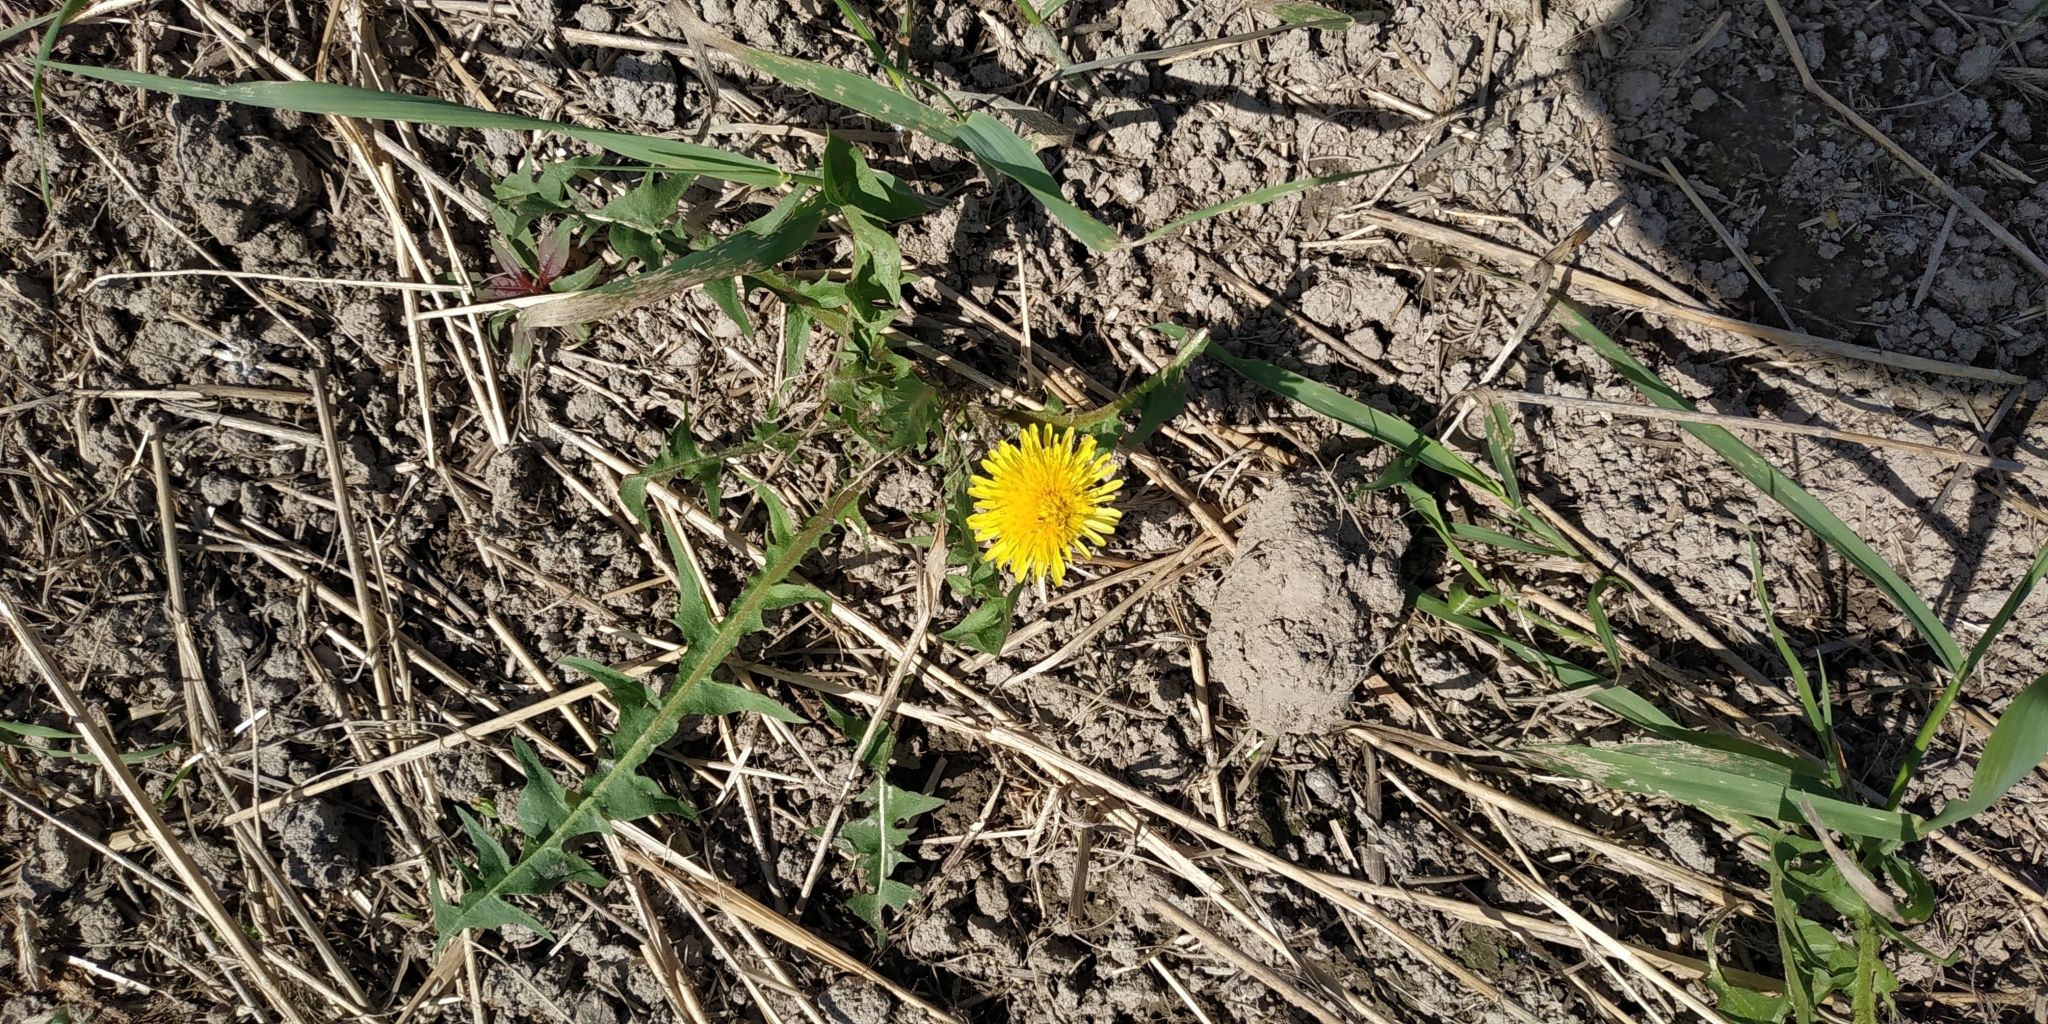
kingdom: Plantae
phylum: Tracheophyta
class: Magnoliopsida
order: Asterales
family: Asteraceae
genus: Taraxacum
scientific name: Taraxacum officinale
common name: Common dandelion
